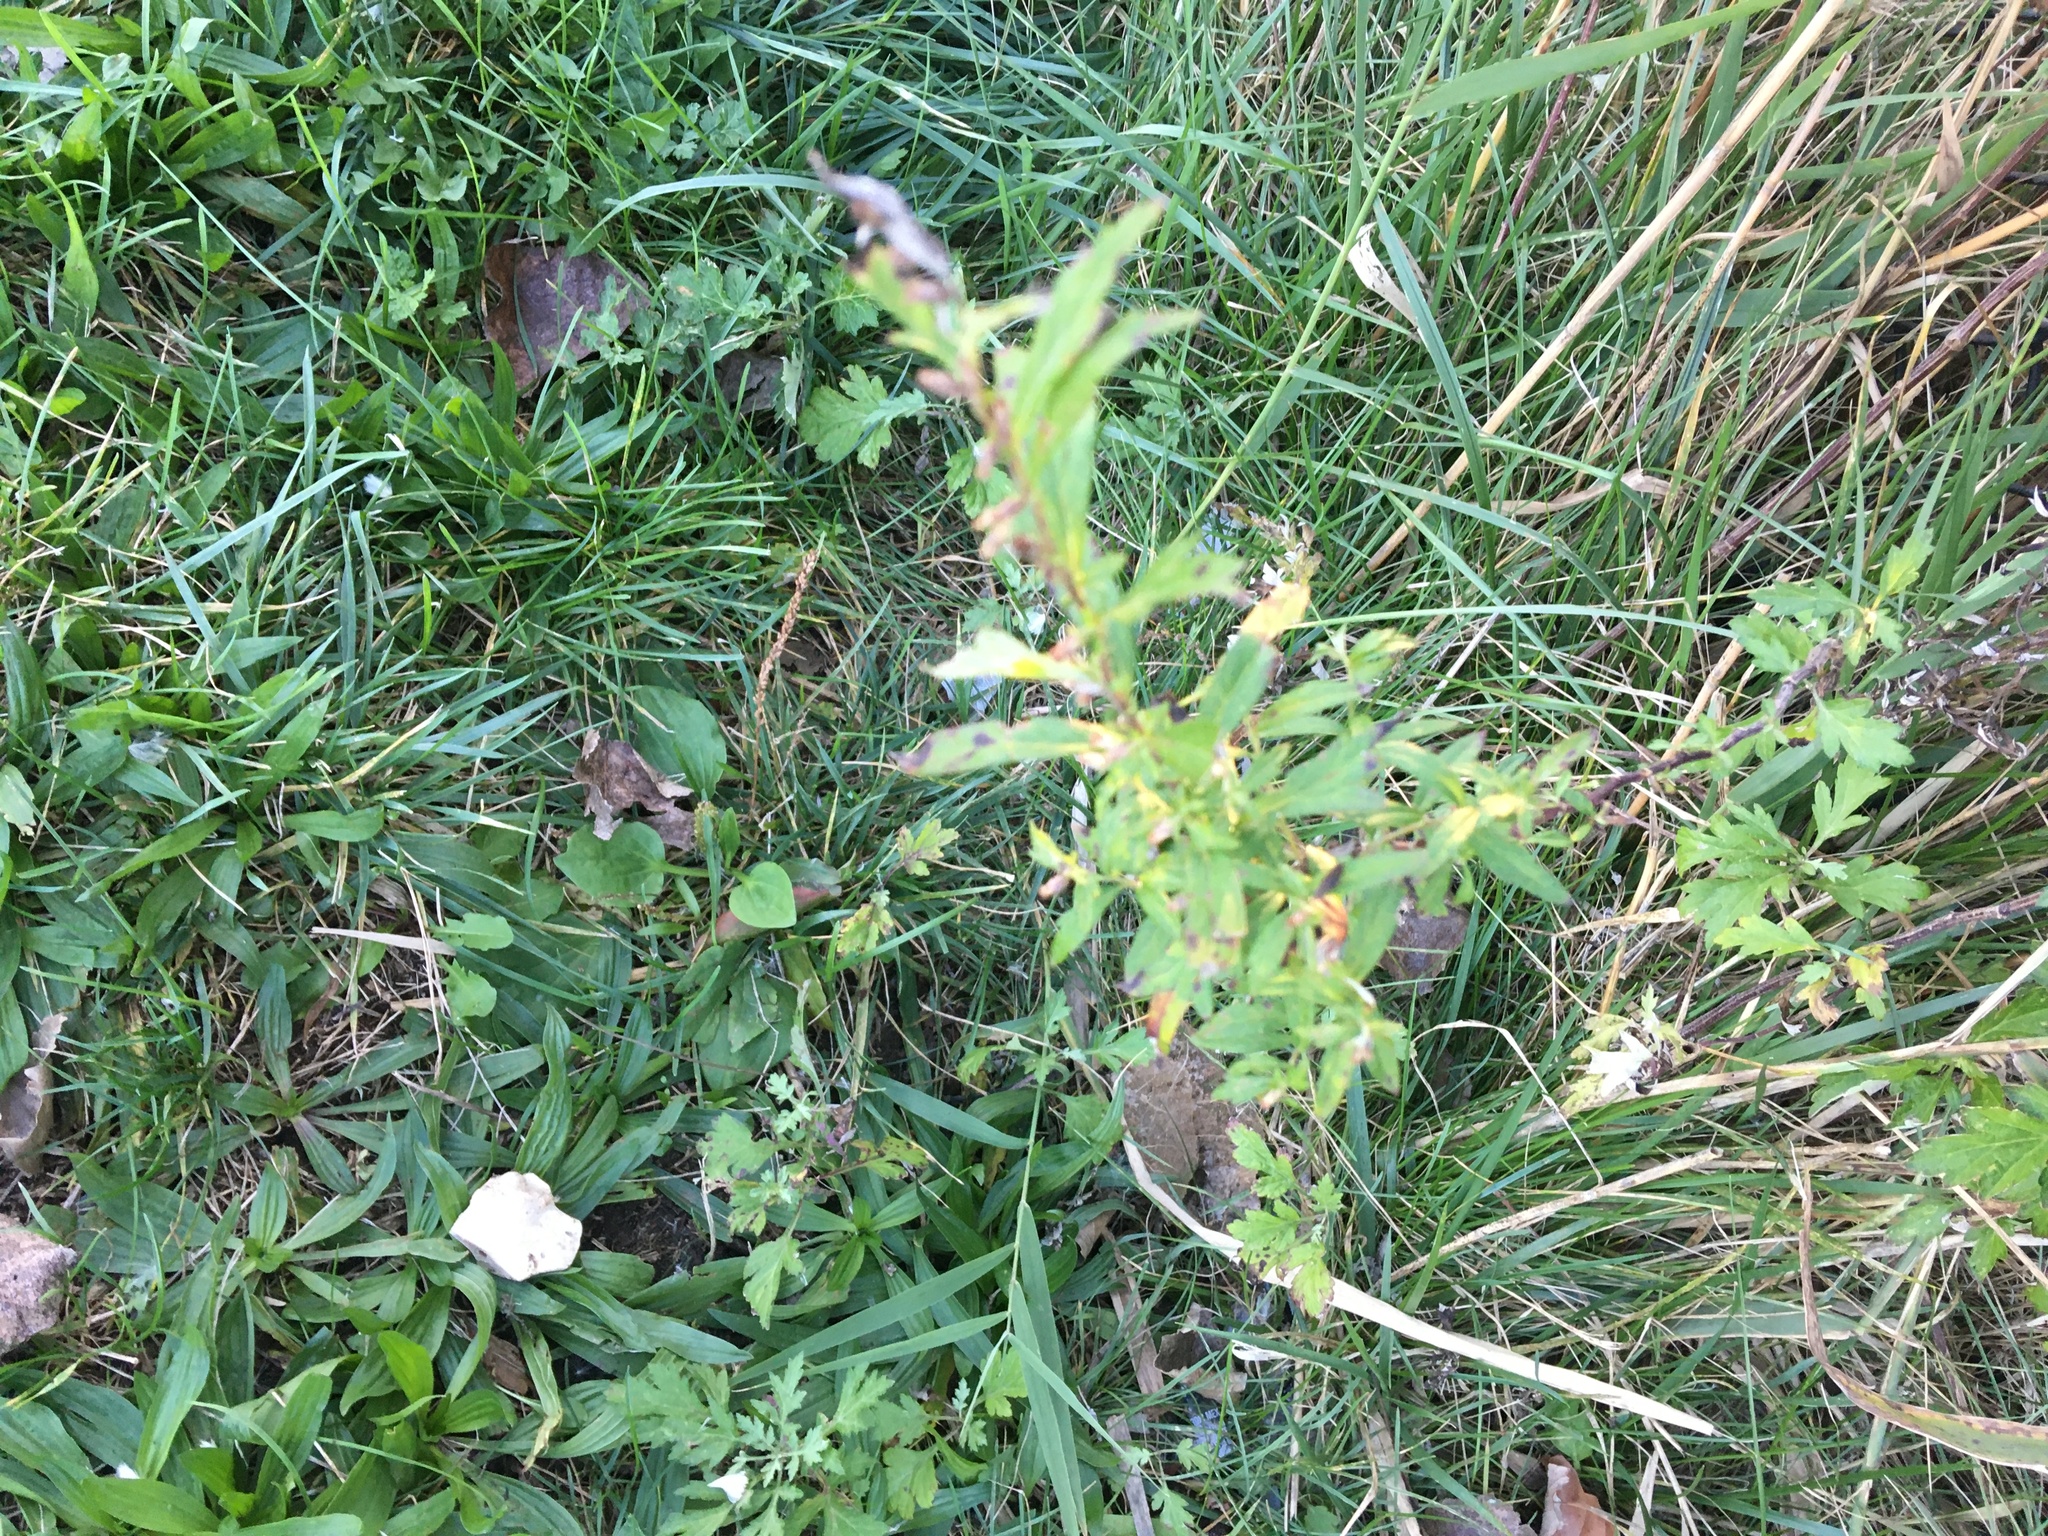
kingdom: Plantae
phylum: Tracheophyta
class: Magnoliopsida
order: Asterales
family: Asteraceae
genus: Artemisia
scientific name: Artemisia vulgaris
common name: Mugwort
